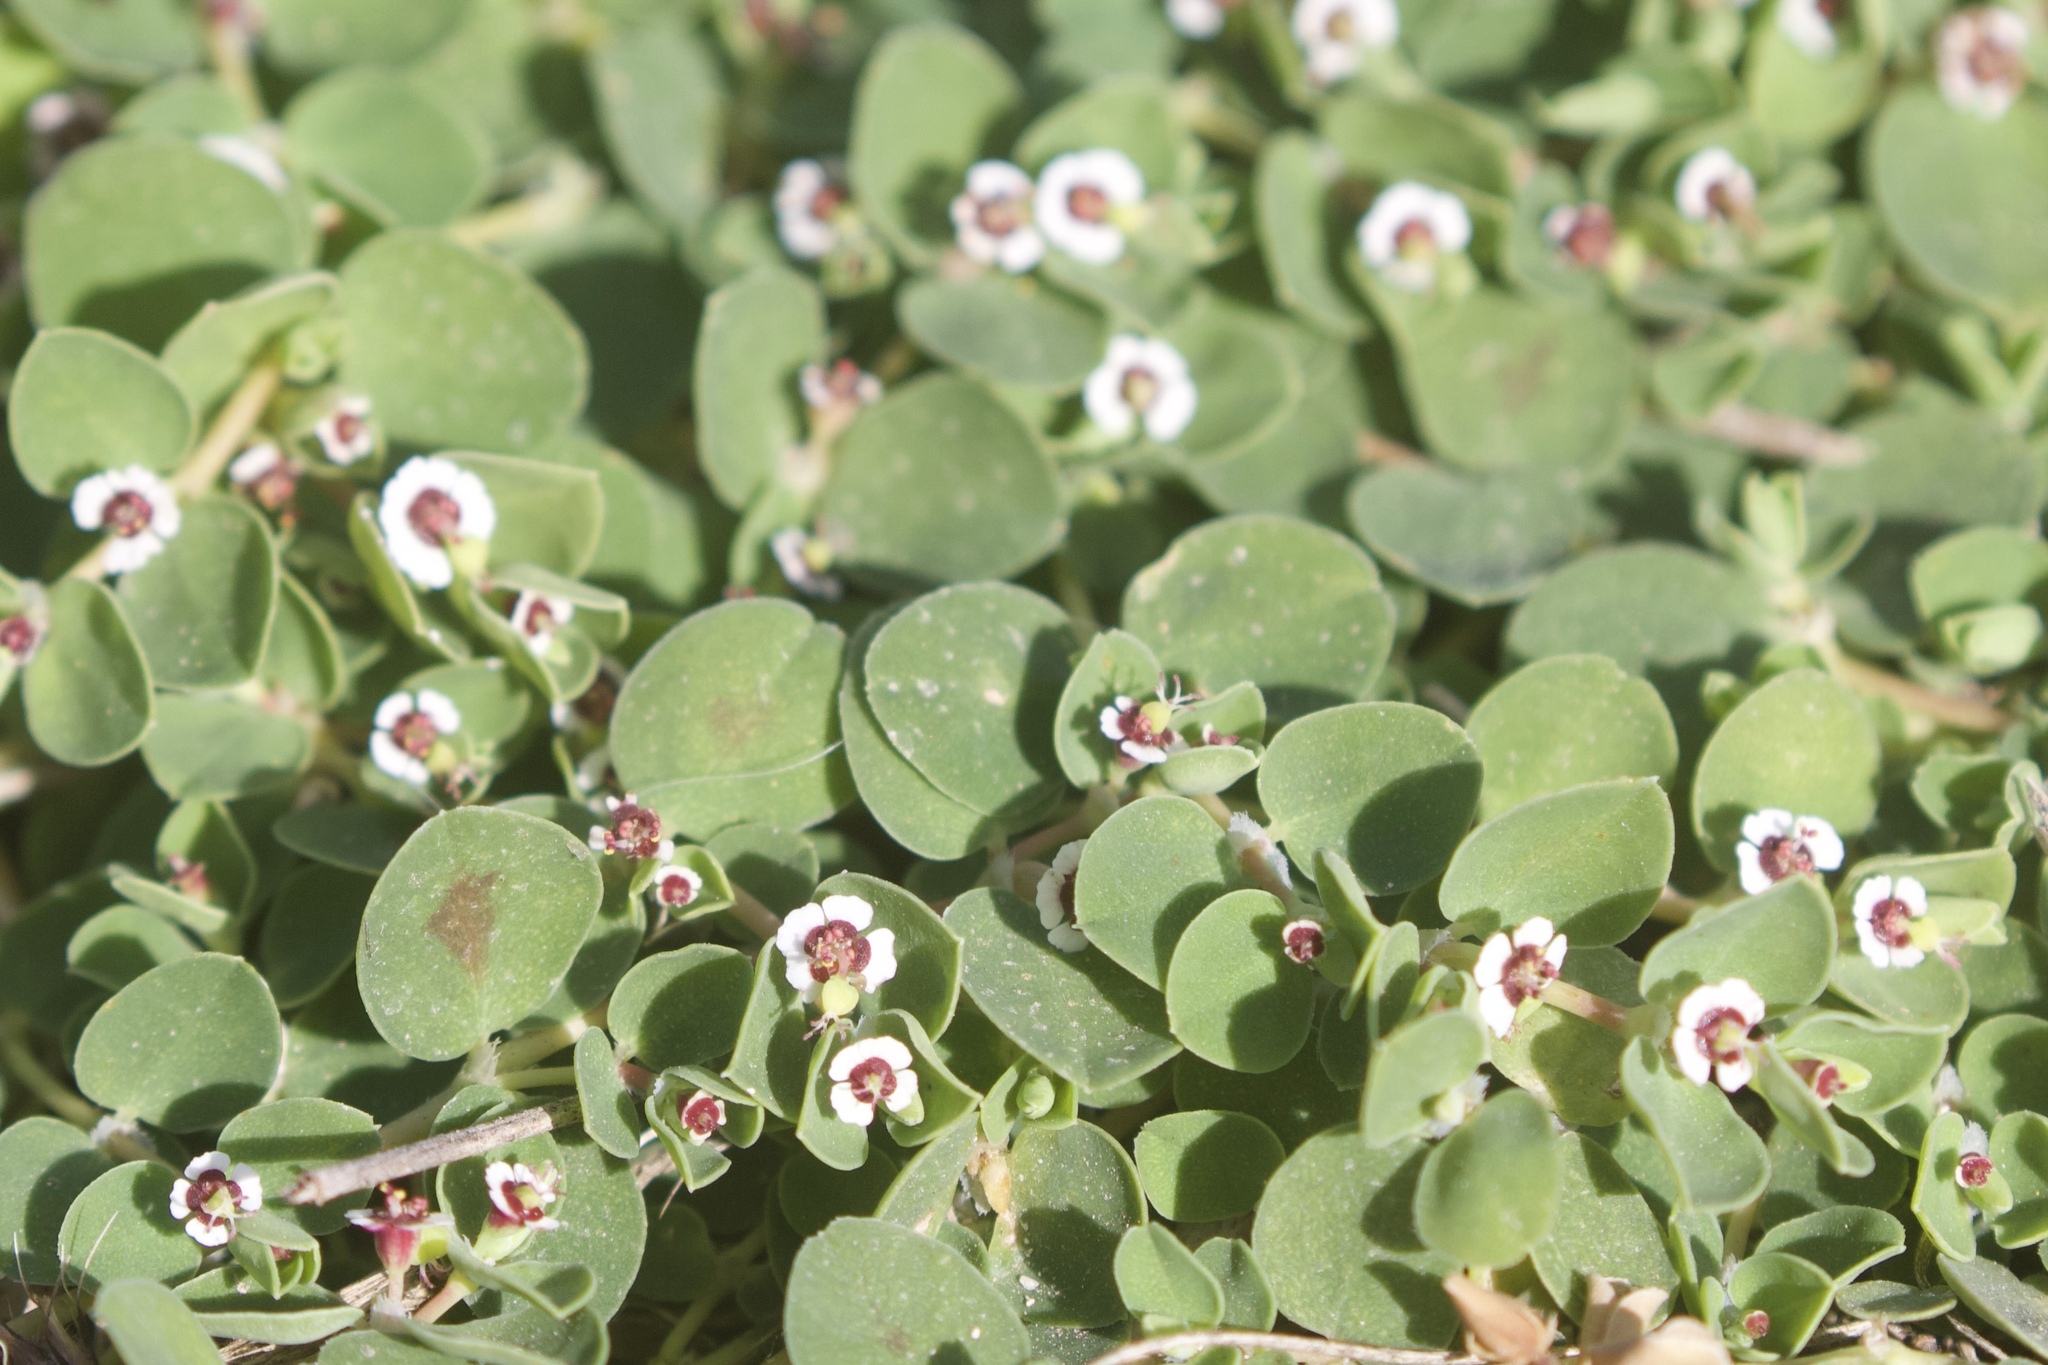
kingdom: Plantae
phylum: Tracheophyta
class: Magnoliopsida
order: Malpighiales
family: Euphorbiaceae
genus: Euphorbia
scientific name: Euphorbia albomarginata
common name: Whitemargin sandmat
